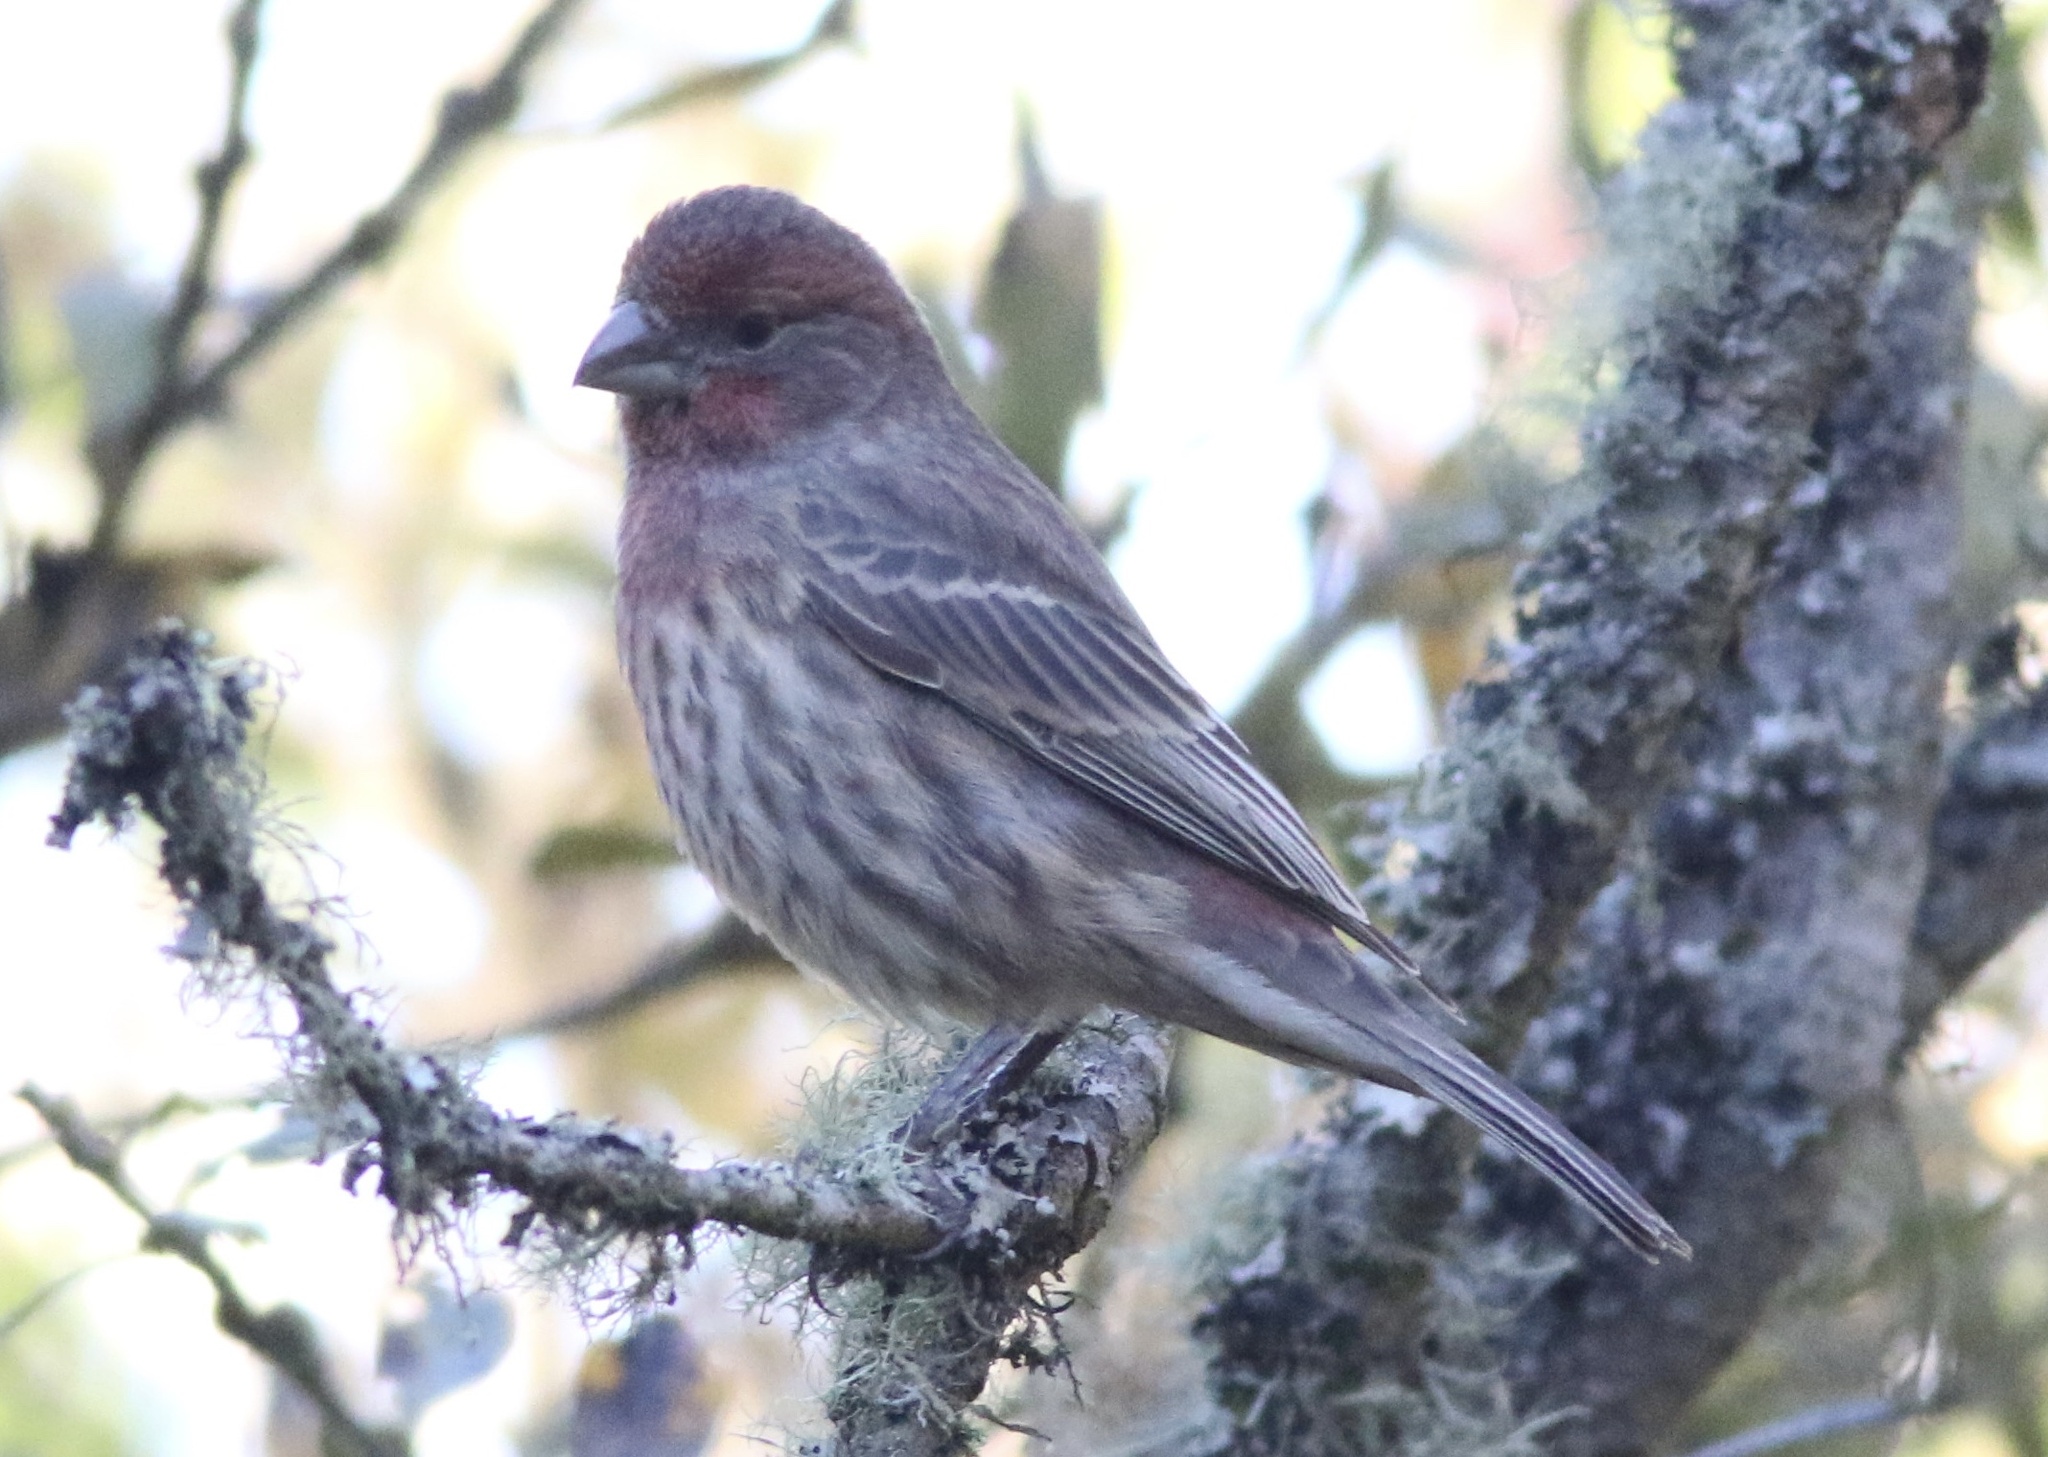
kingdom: Animalia
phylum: Chordata
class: Aves
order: Passeriformes
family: Fringillidae
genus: Haemorhous
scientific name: Haemorhous mexicanus
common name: House finch
